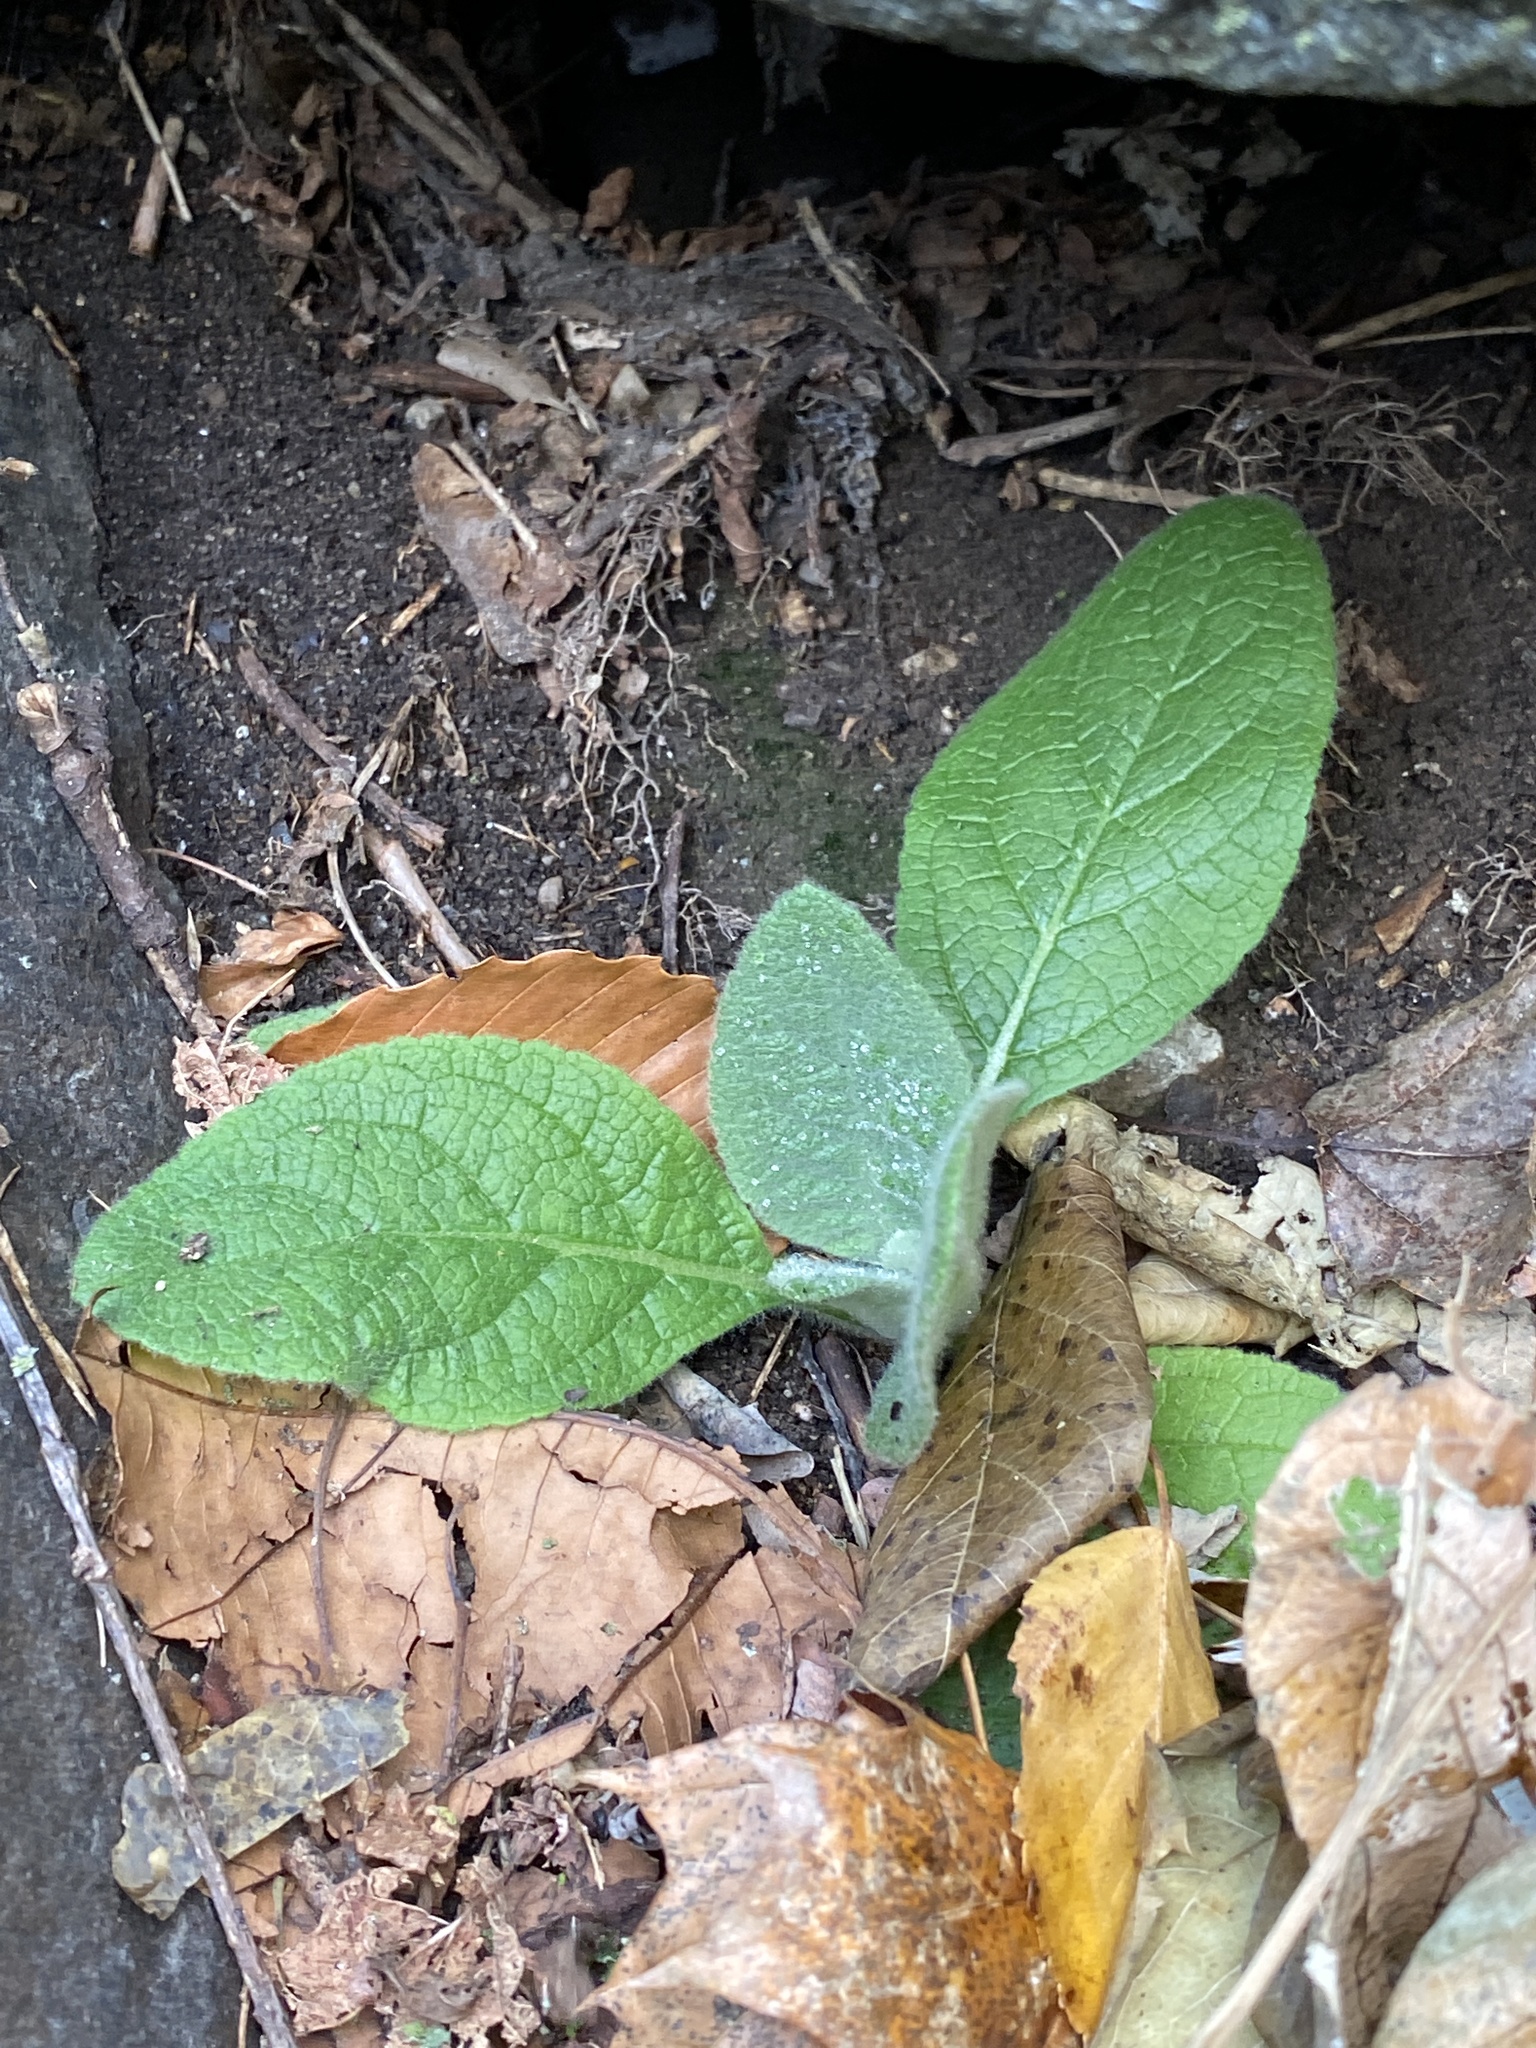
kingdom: Plantae
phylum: Tracheophyta
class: Magnoliopsida
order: Lamiales
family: Scrophulariaceae
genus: Verbascum
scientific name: Verbascum thapsus
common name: Common mullein
